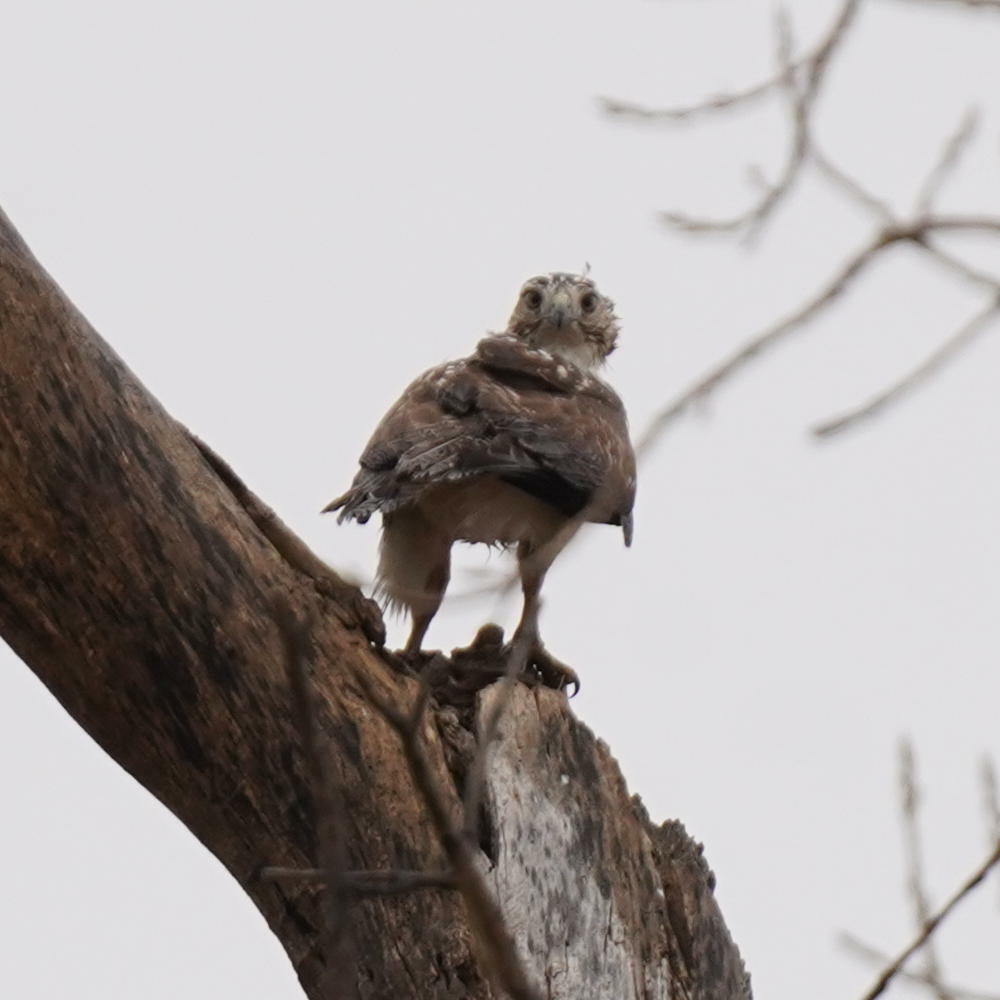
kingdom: Animalia
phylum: Chordata
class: Aves
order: Accipitriformes
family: Accipitridae
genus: Buteo
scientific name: Buteo jamaicensis
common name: Red-tailed hawk
